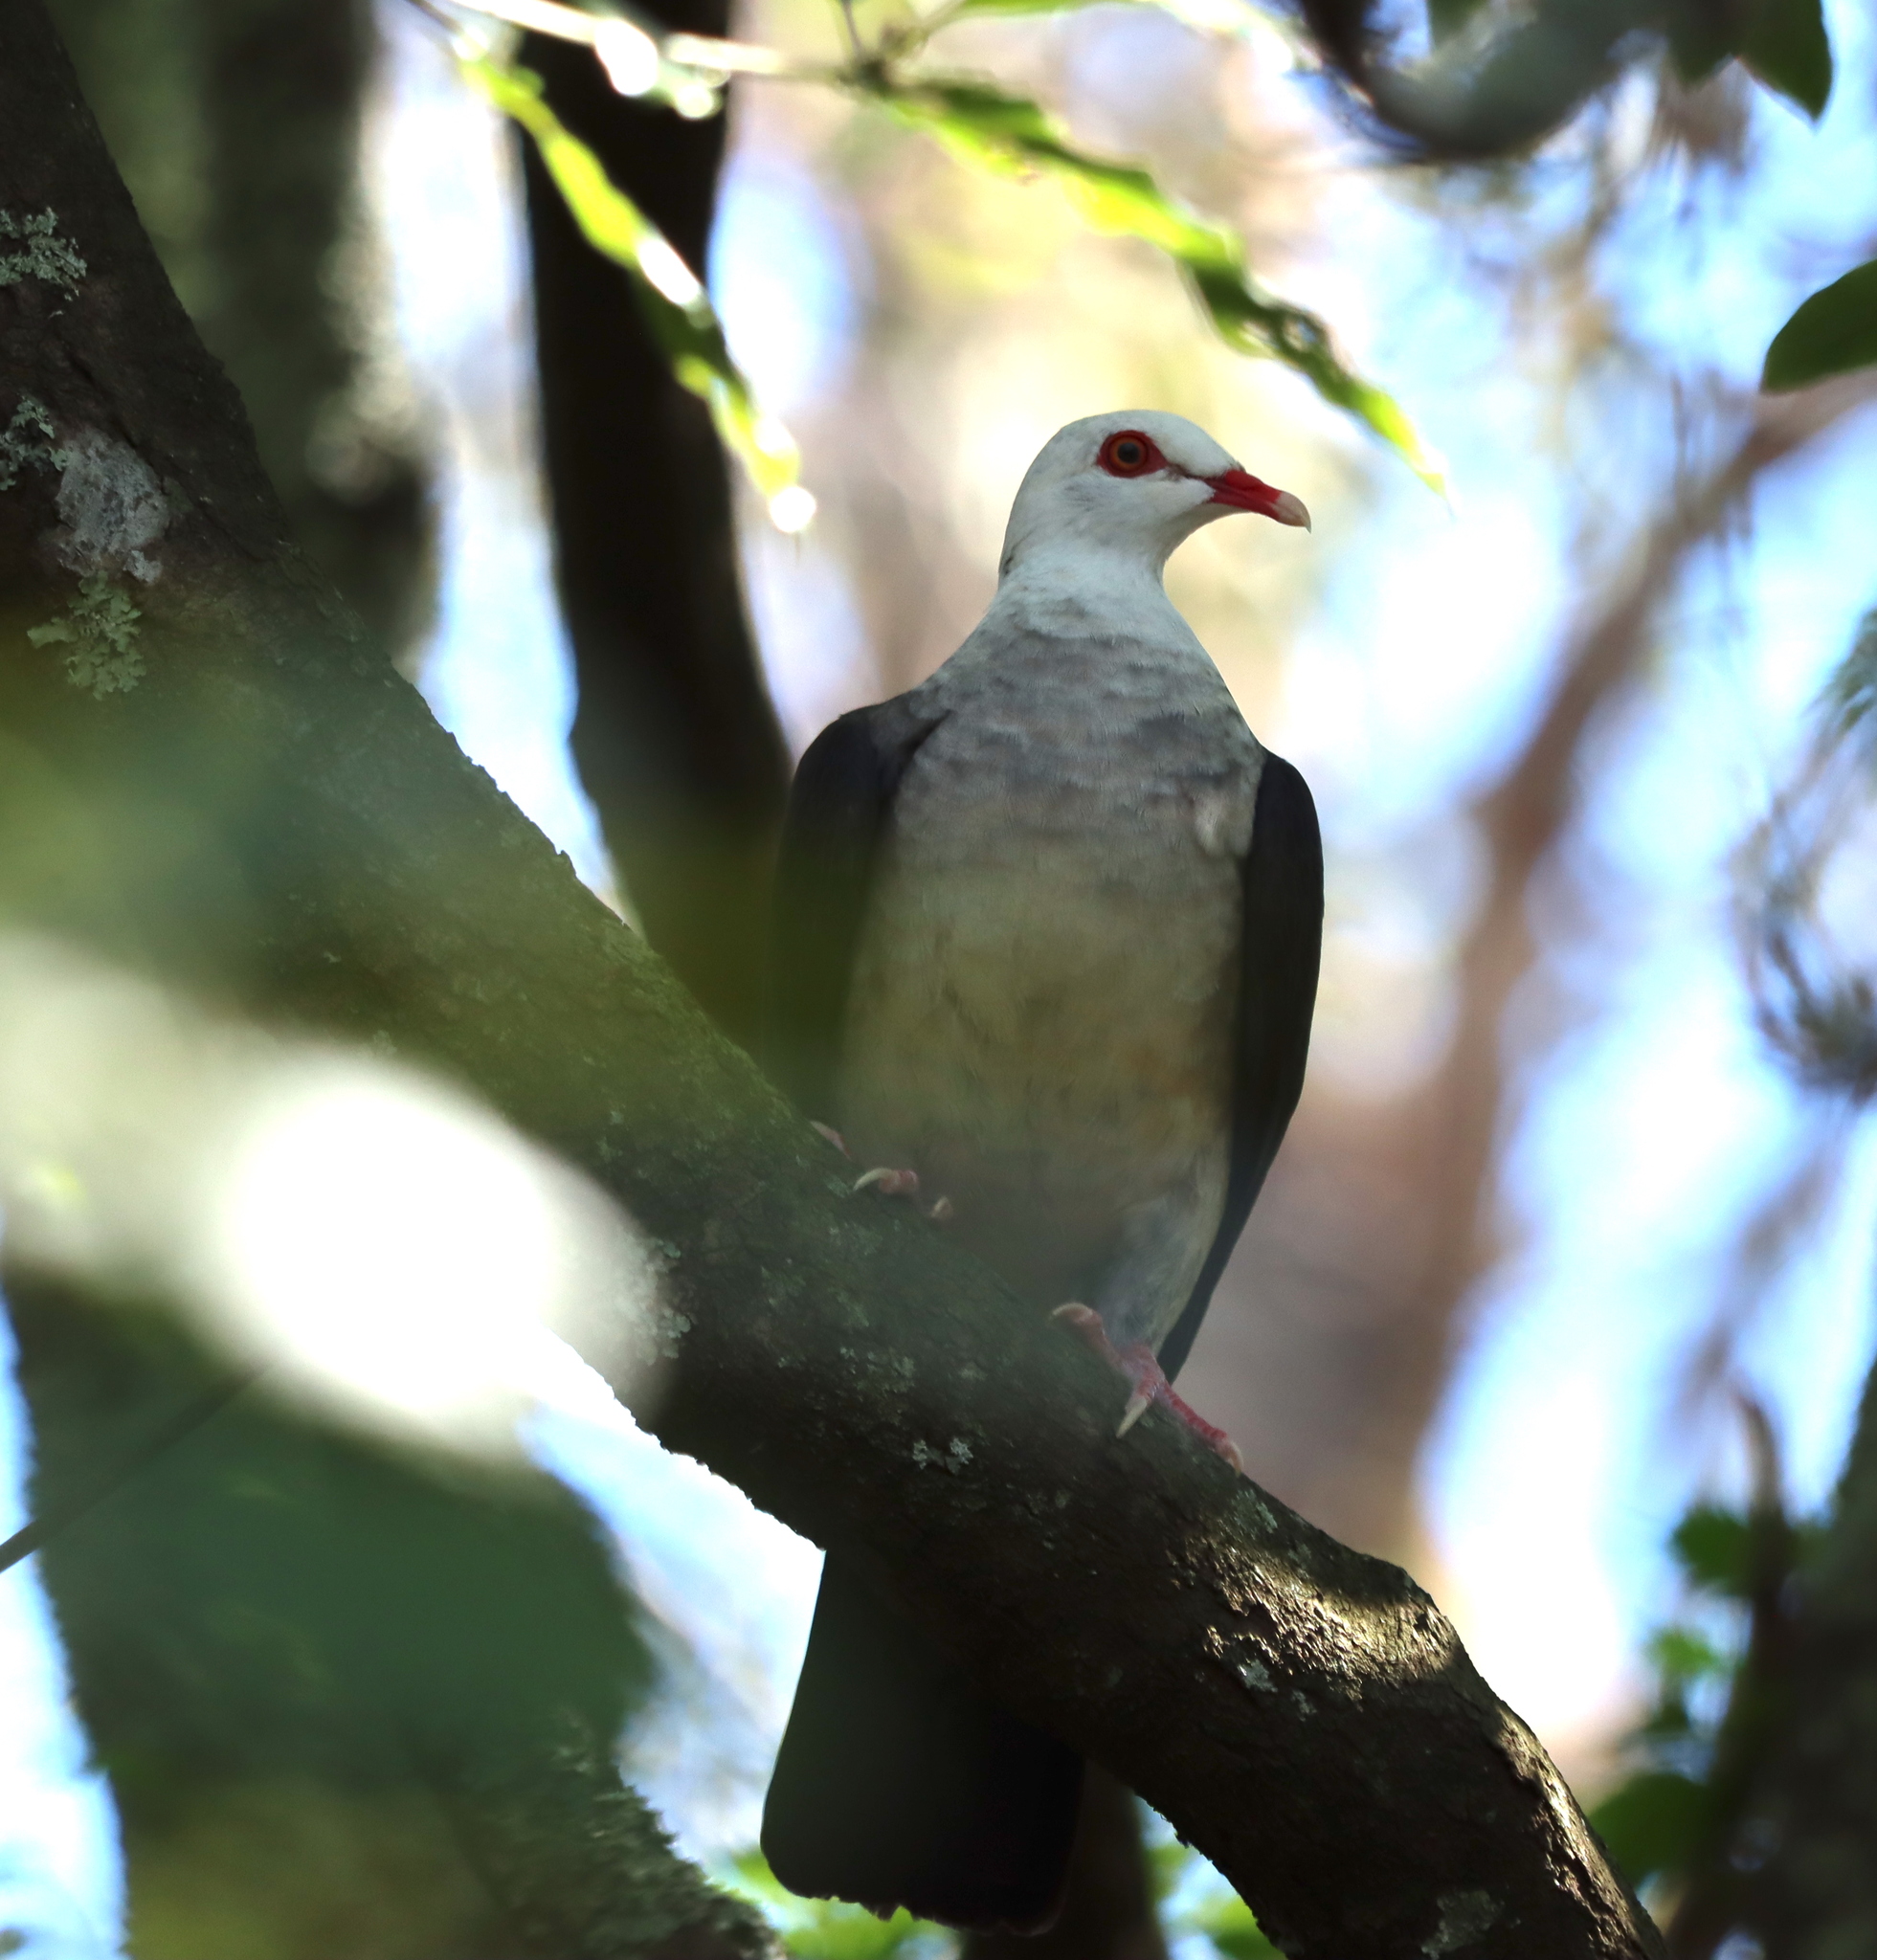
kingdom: Animalia
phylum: Chordata
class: Aves
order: Columbiformes
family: Columbidae
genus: Columba
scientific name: Columba leucomela
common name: White-headed pigeon
